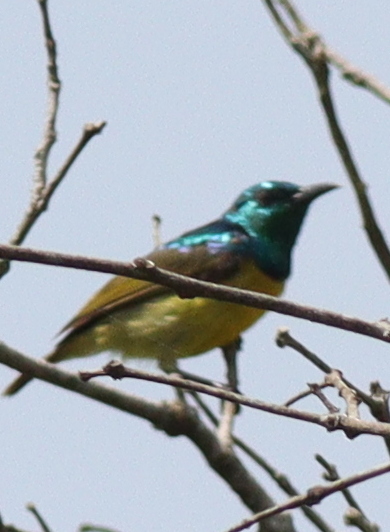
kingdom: Animalia
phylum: Chordata
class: Aves
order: Passeriformes
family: Nectariniidae
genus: Hedydipna
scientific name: Hedydipna collaris
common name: Collared sunbird
